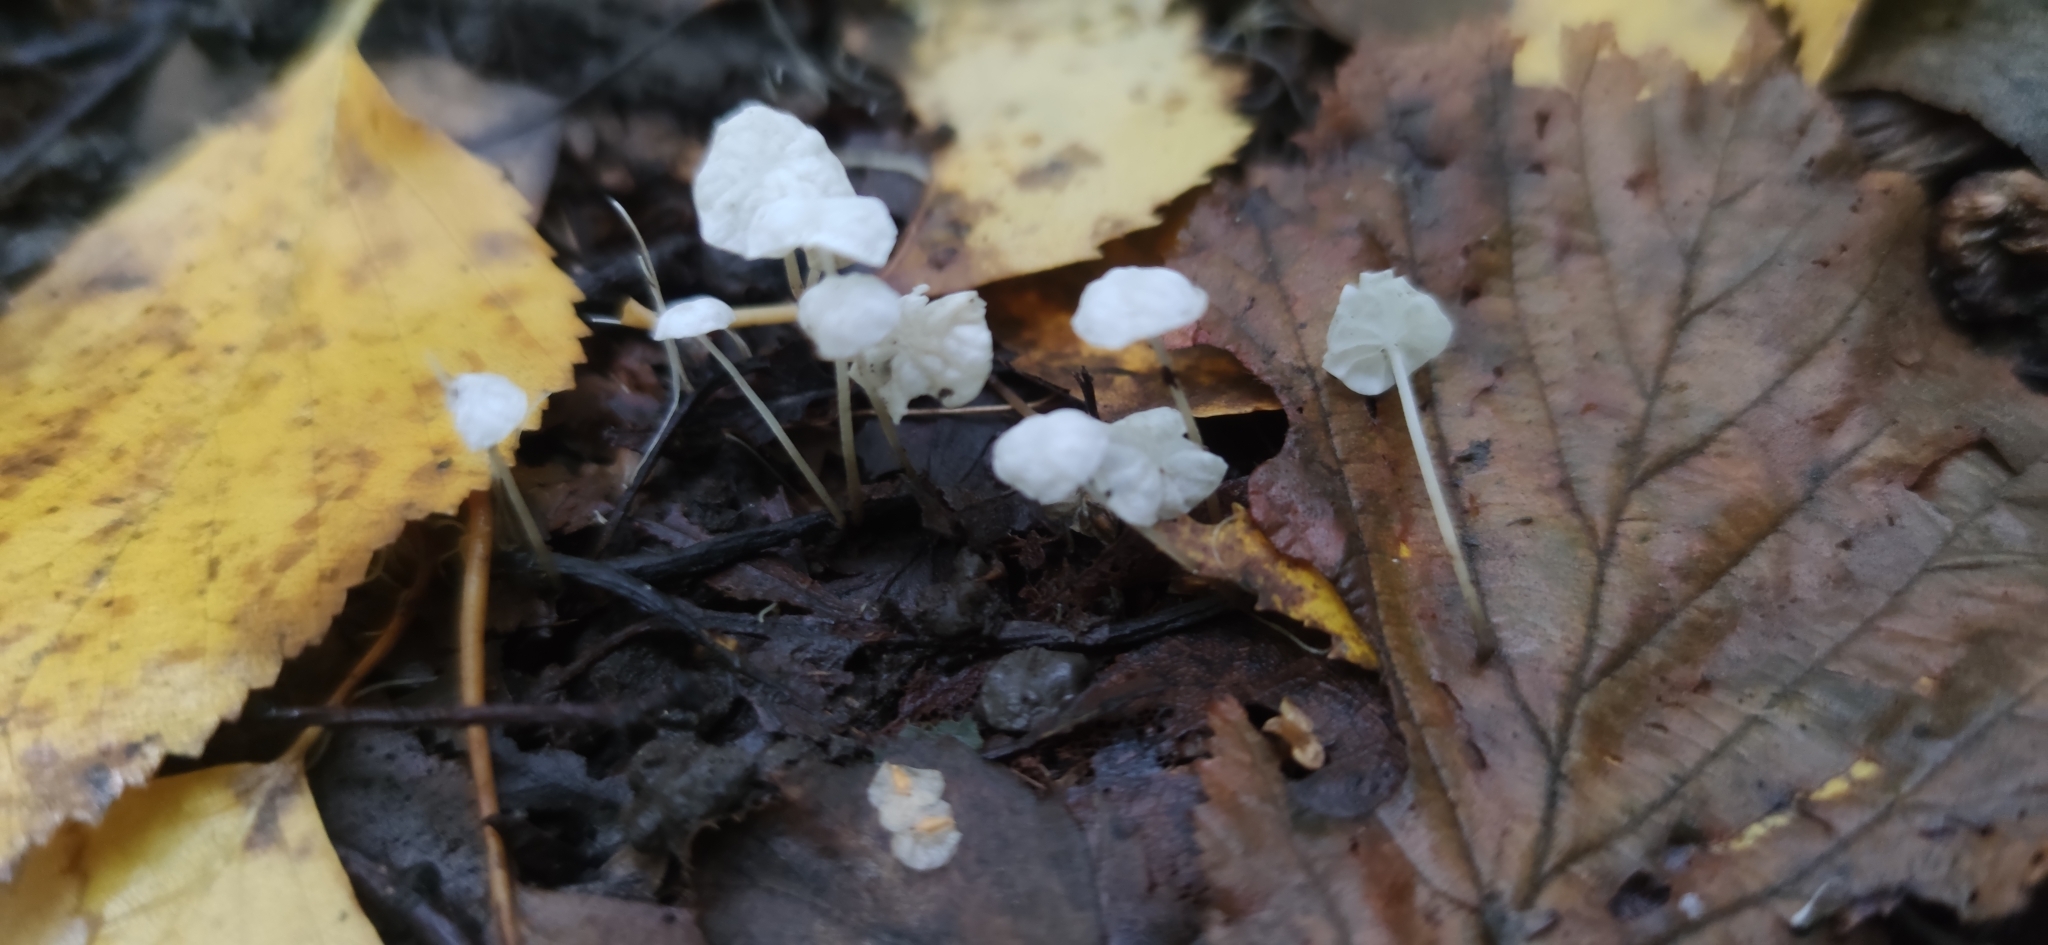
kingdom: Fungi
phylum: Basidiomycota
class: Agaricomycetes
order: Agaricales
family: Tricholomataceae
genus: Delicatula
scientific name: Delicatula integrella
